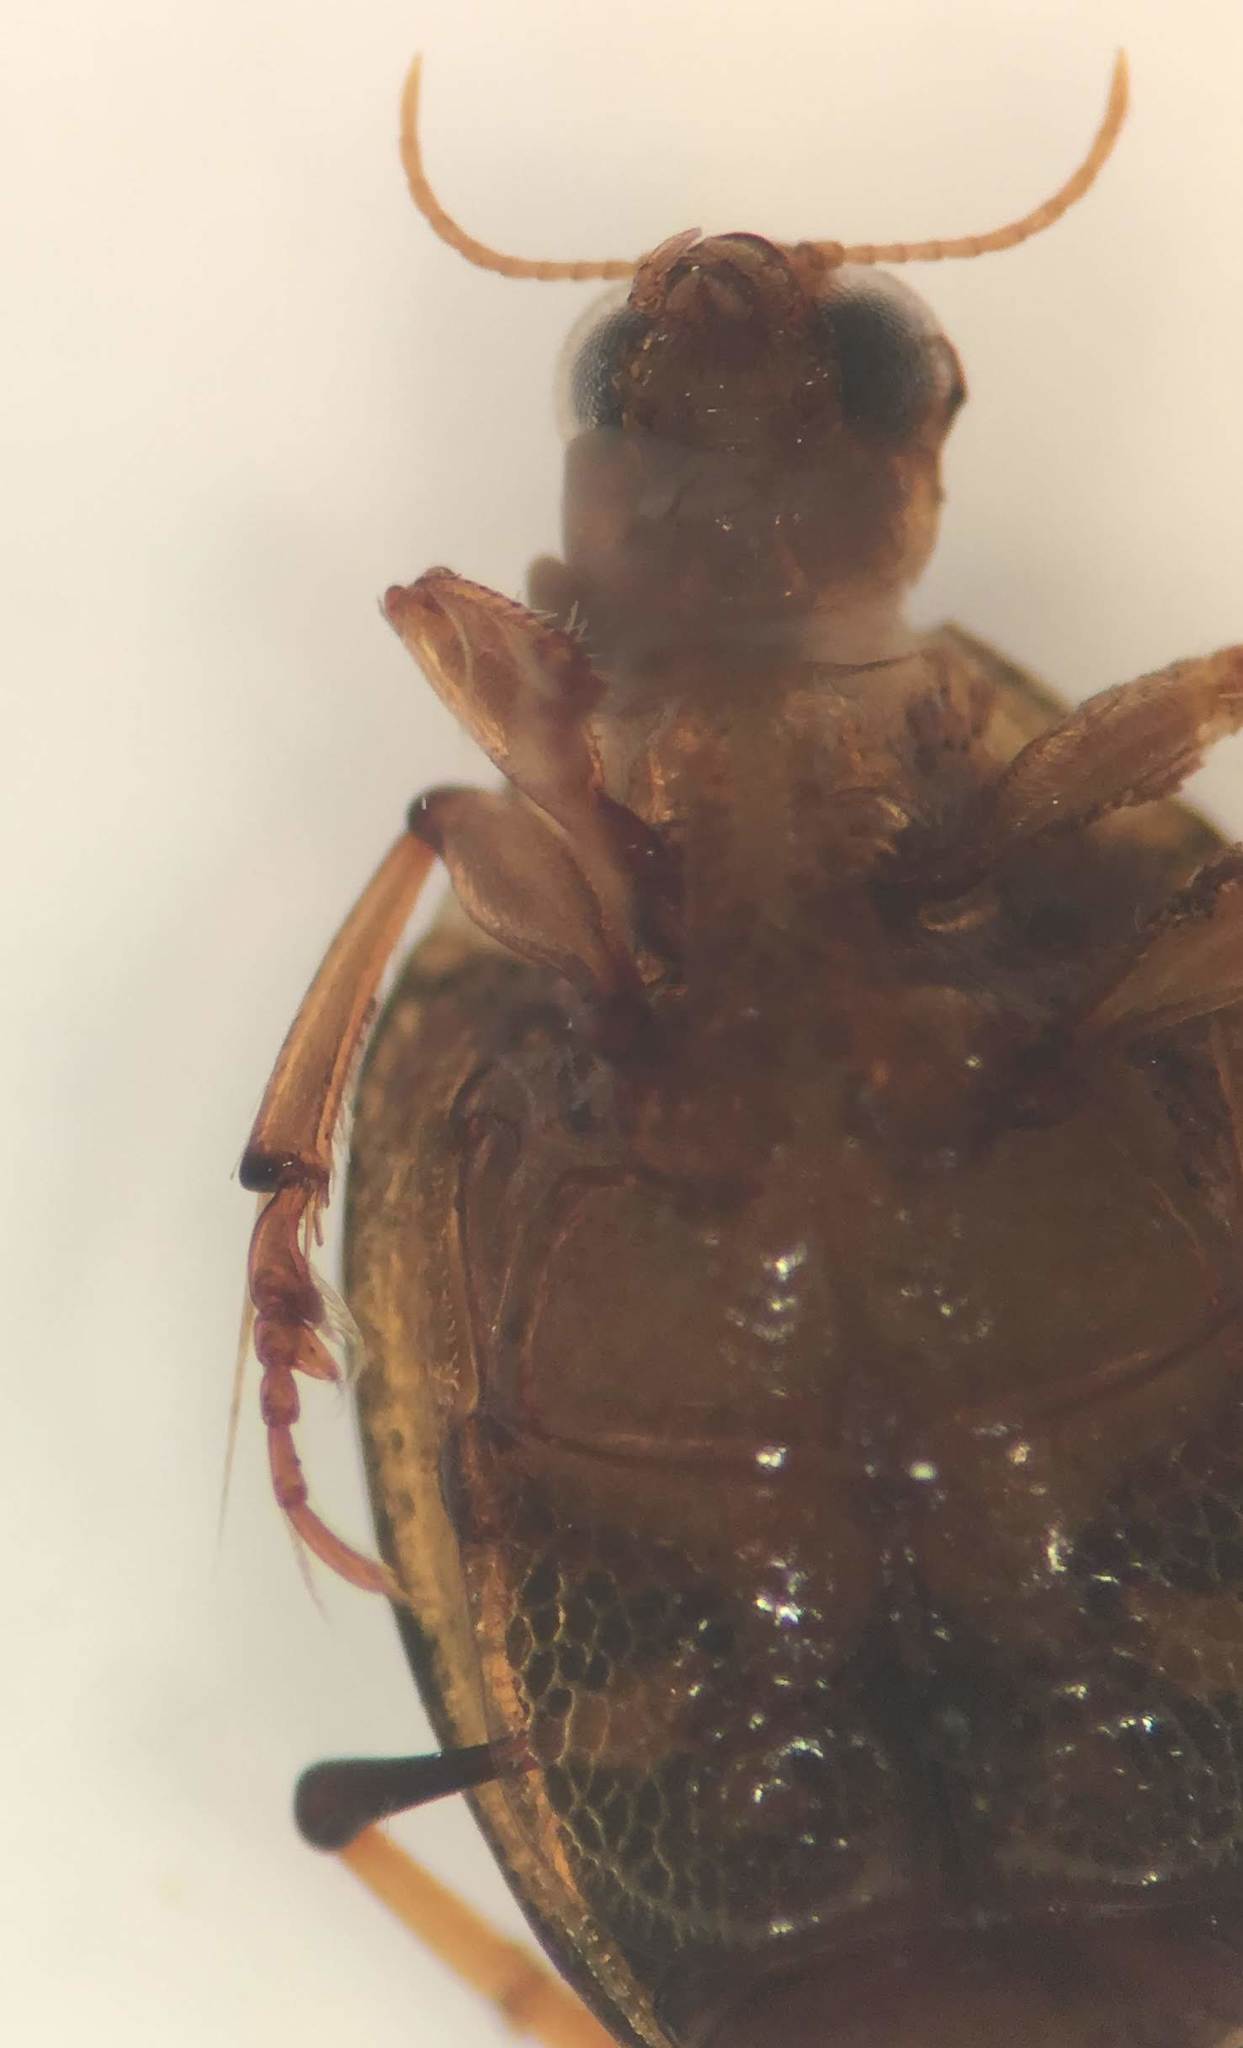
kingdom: Animalia
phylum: Arthropoda
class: Insecta
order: Coleoptera
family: Haliplidae
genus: Peltodytes
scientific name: Peltodytes shermani
